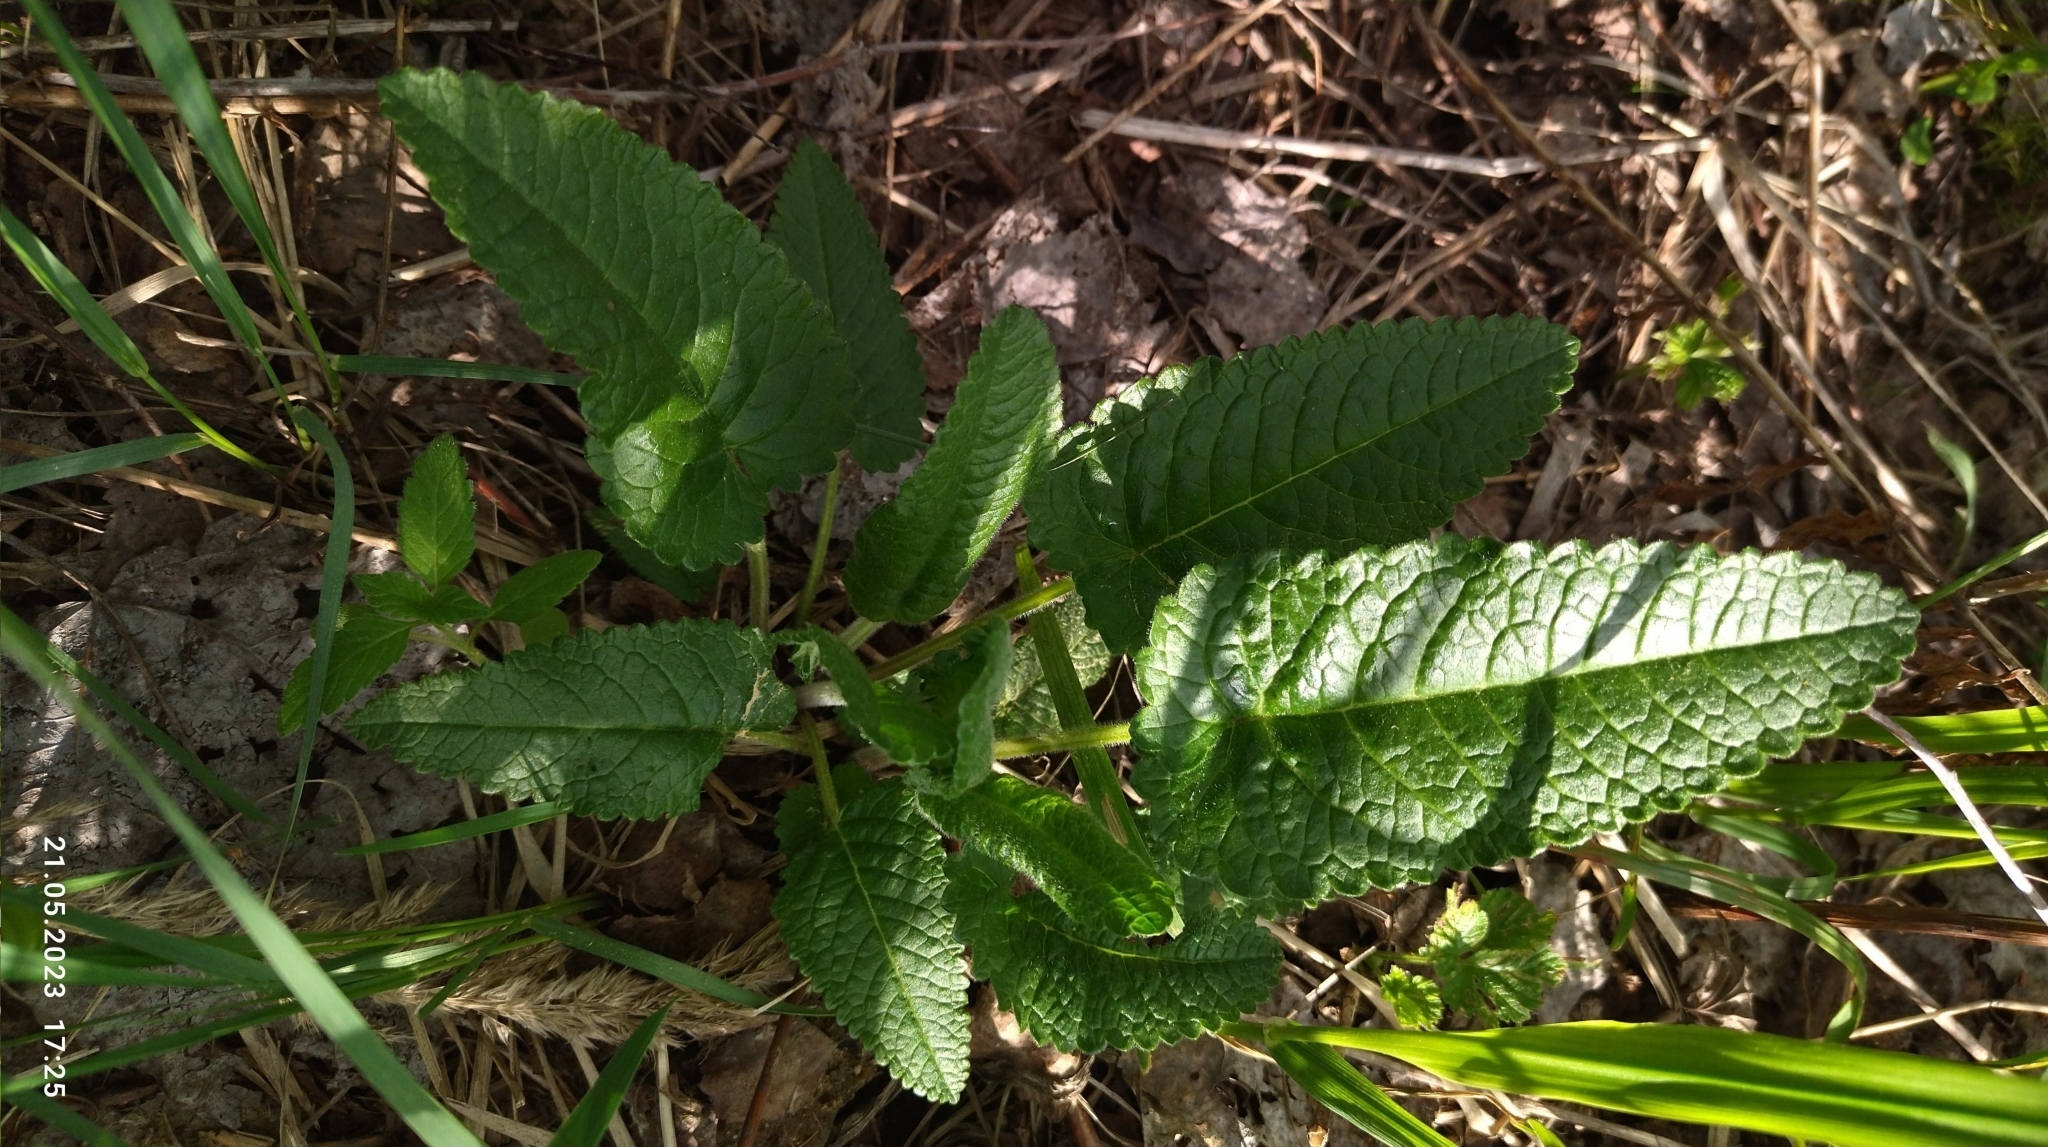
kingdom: Plantae
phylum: Tracheophyta
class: Magnoliopsida
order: Lamiales
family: Lamiaceae
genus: Betonica
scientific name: Betonica officinalis
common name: Bishop's-wort
